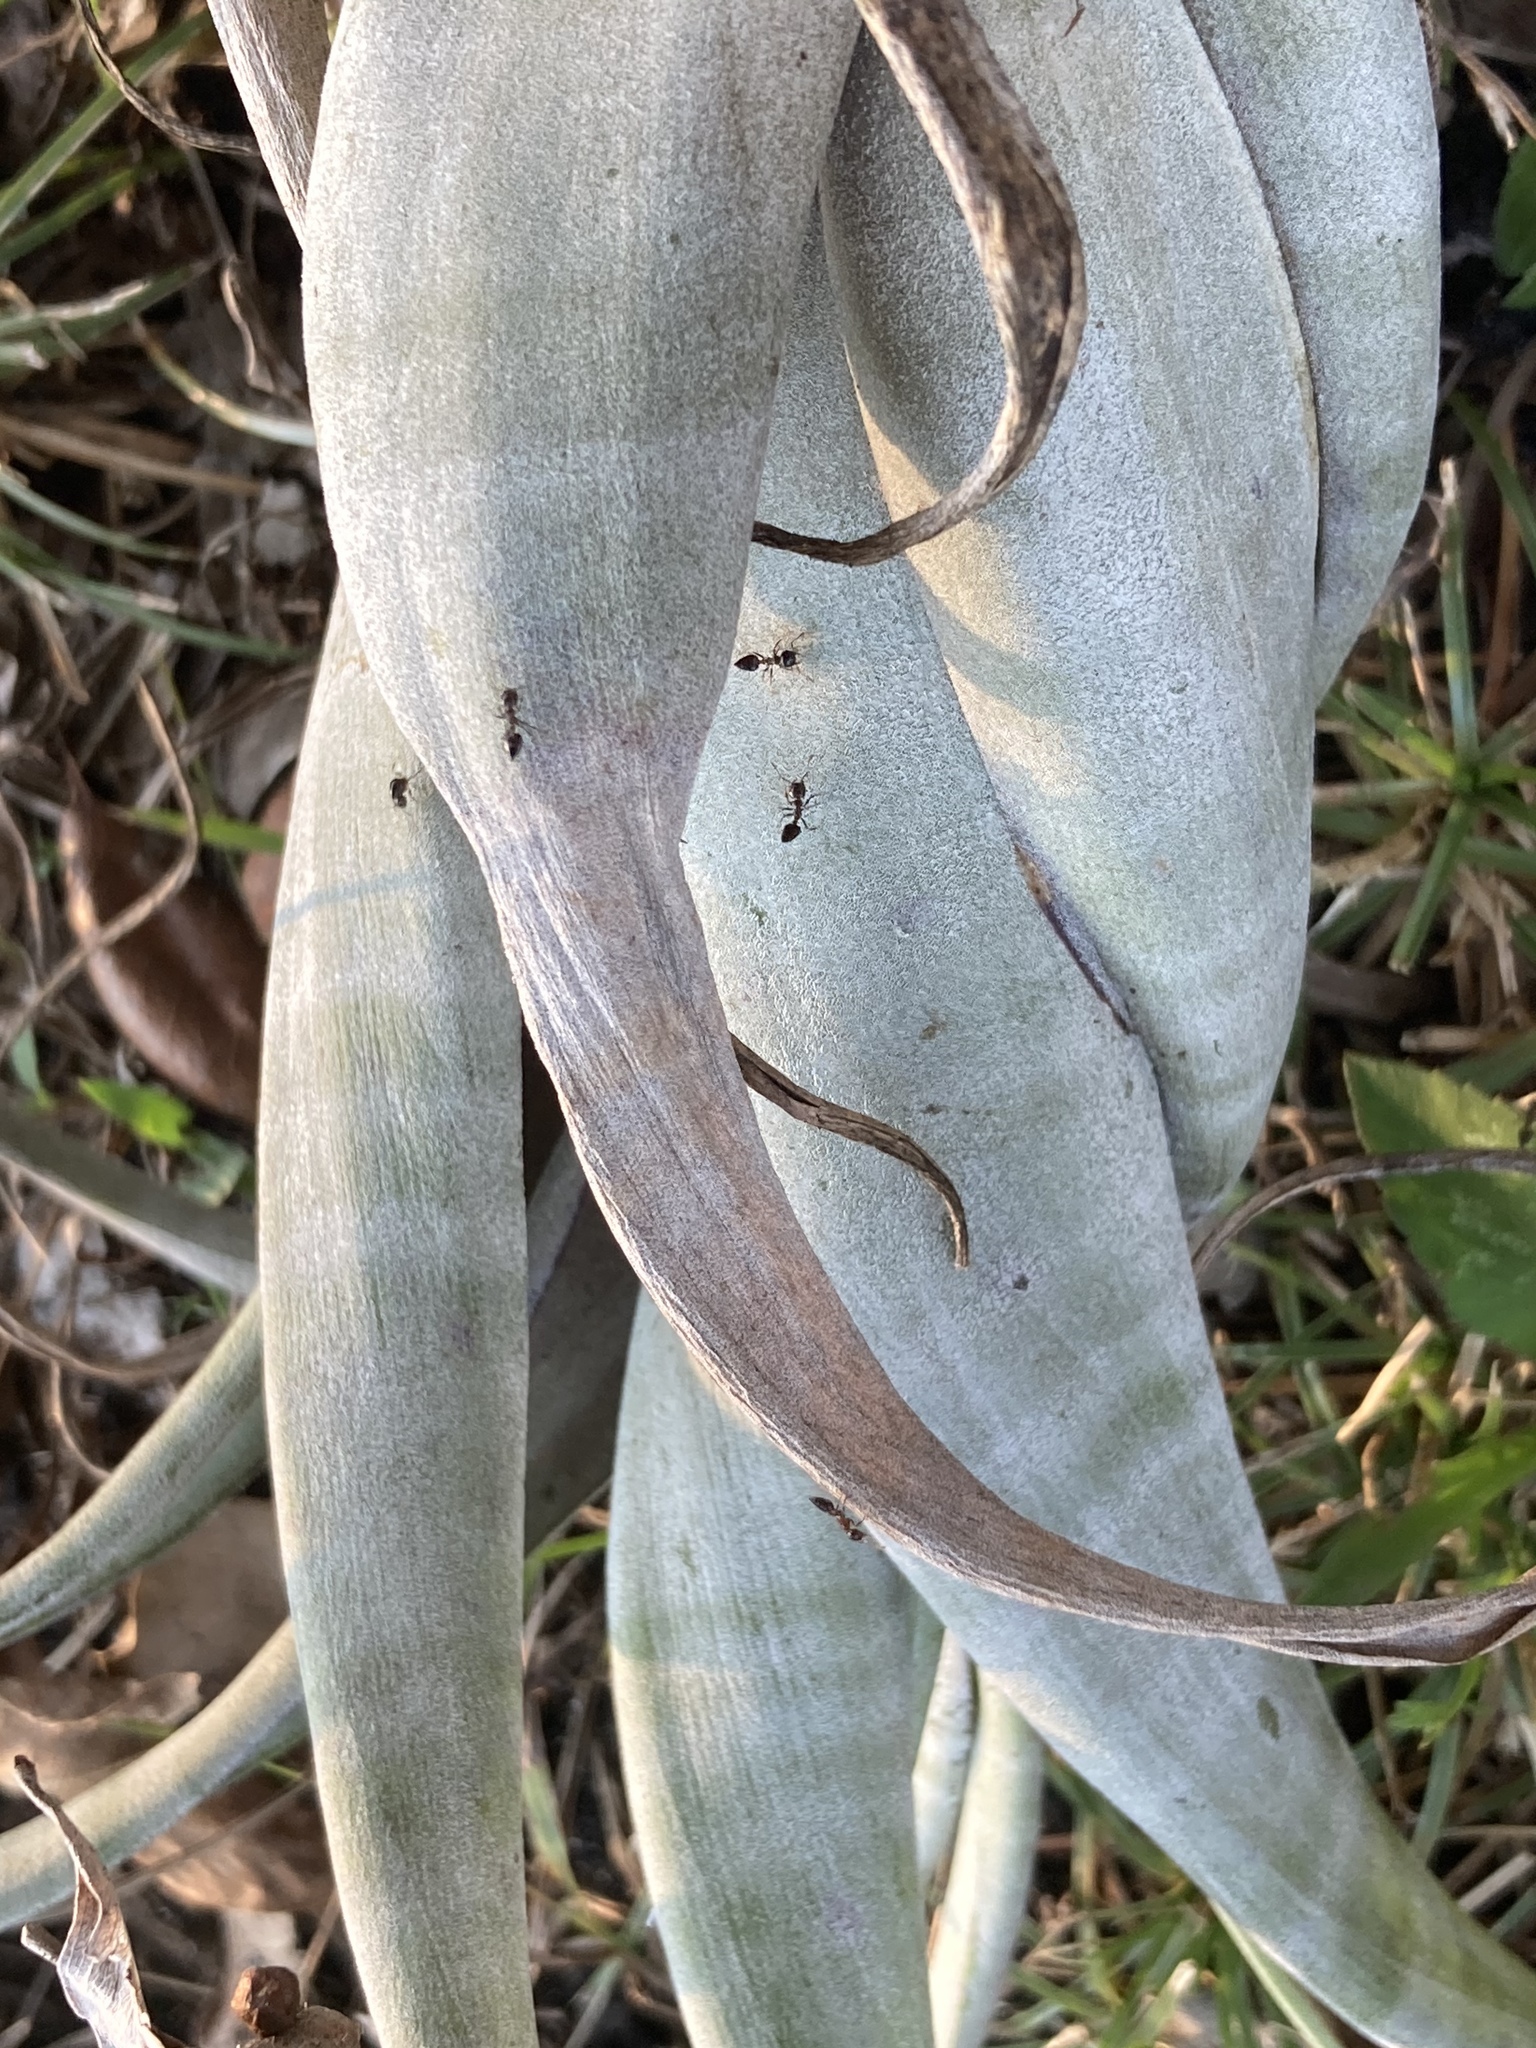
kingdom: Plantae
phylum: Tracheophyta
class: Liliopsida
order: Poales
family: Bromeliaceae
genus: Tillandsia
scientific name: Tillandsia flexuosa
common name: Banded airplant
